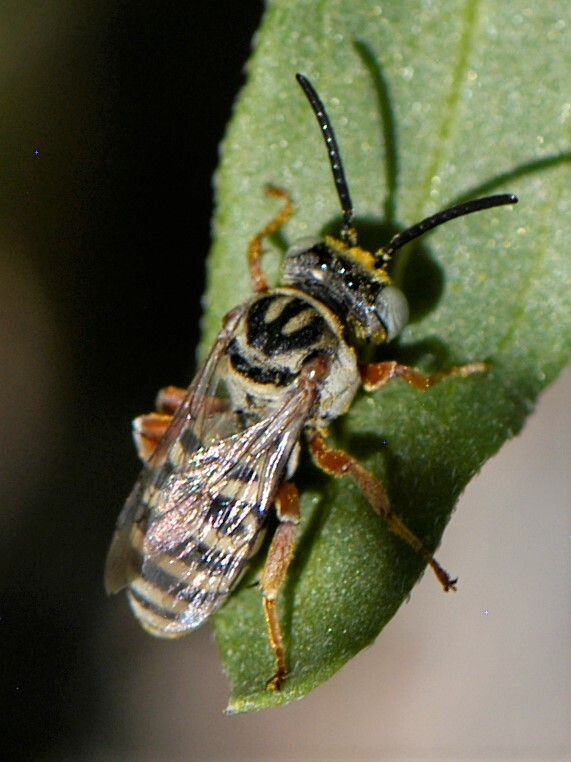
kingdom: Animalia
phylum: Arthropoda
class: Insecta
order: Hymenoptera
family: Apidae
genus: Triepeolus
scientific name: Triepeolus
